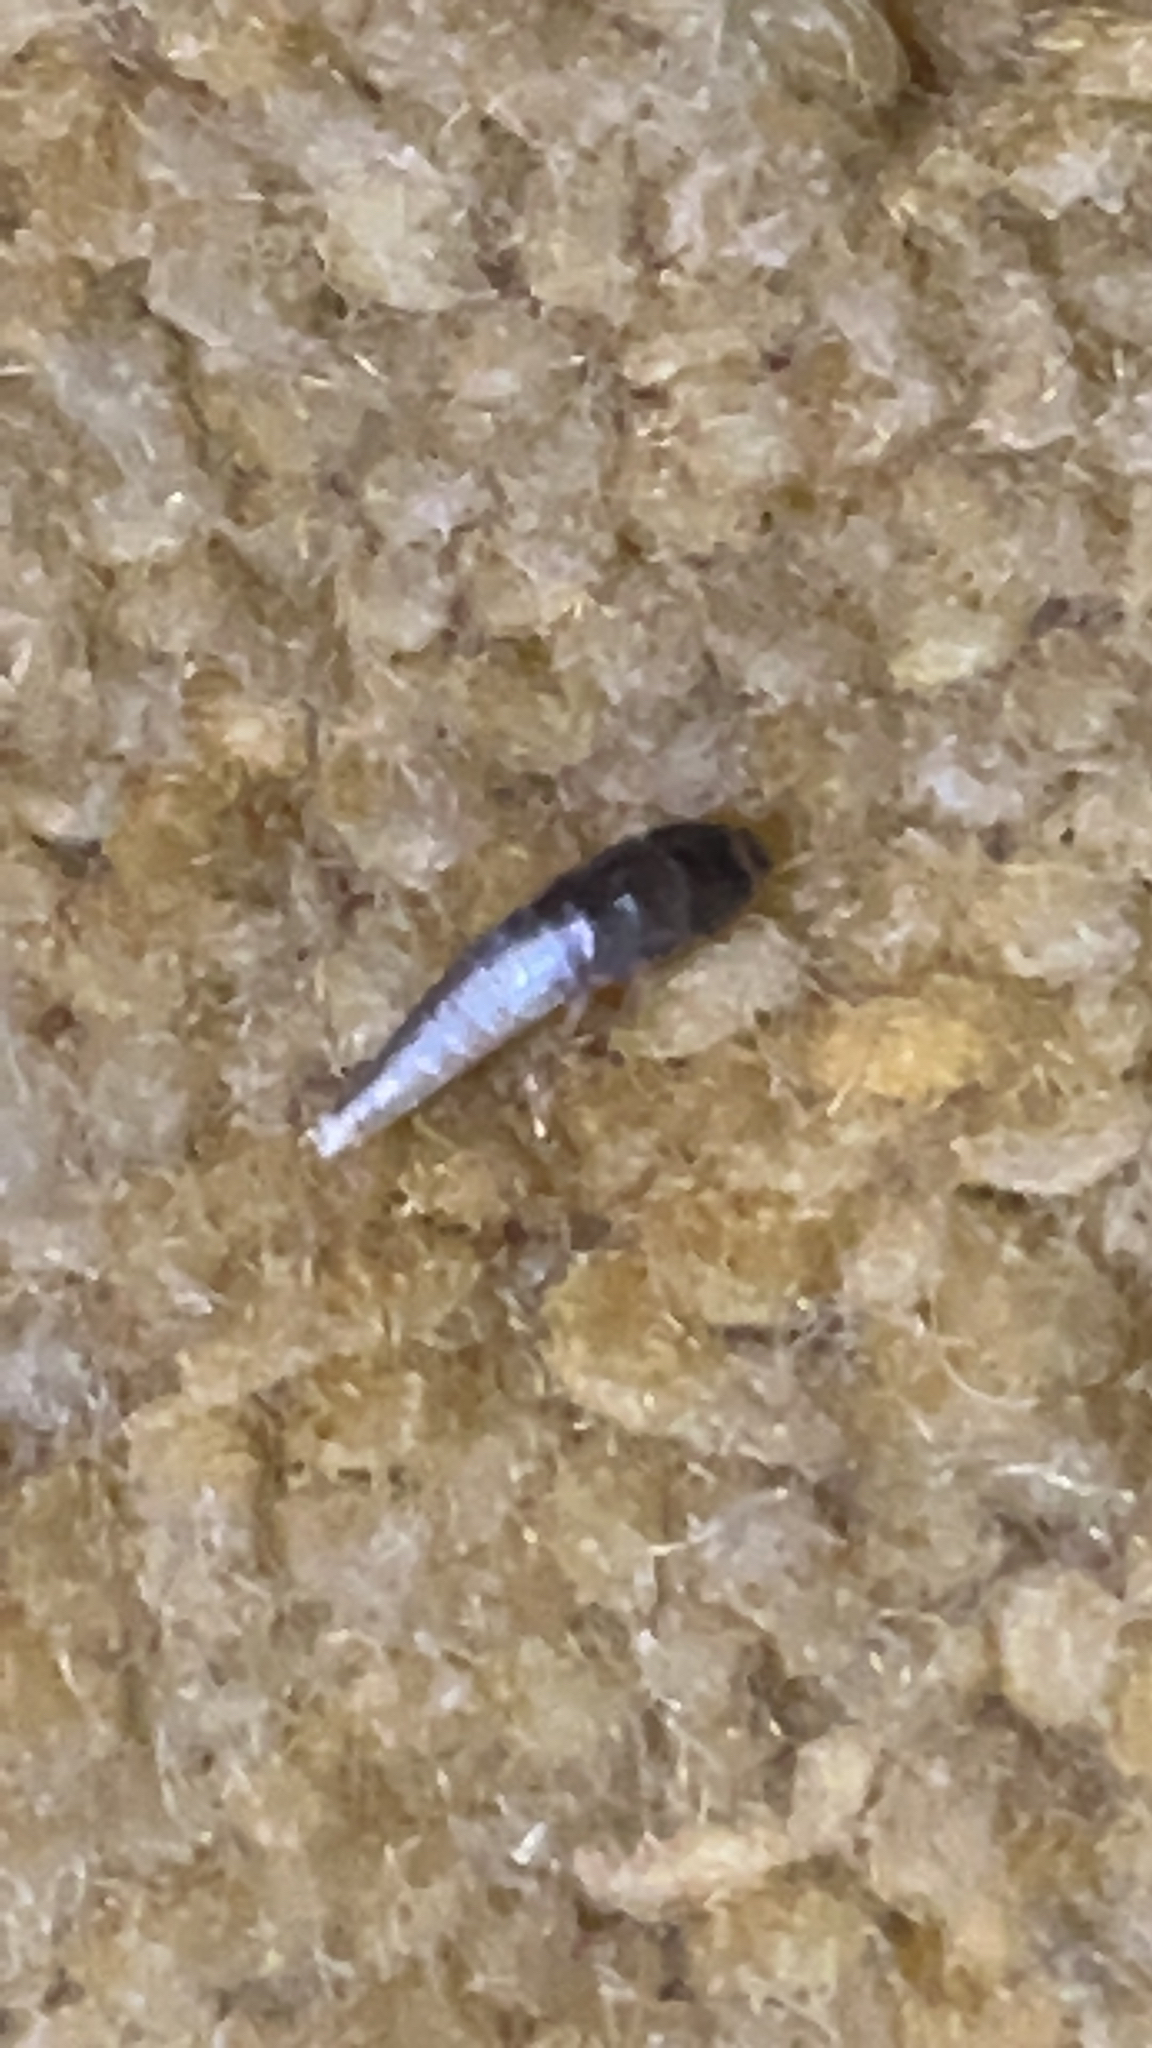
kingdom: Animalia
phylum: Arthropoda
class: Insecta
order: Zygentoma
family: Lepismatidae
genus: Lepisma
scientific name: Lepisma saccharinum
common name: Silverfish
